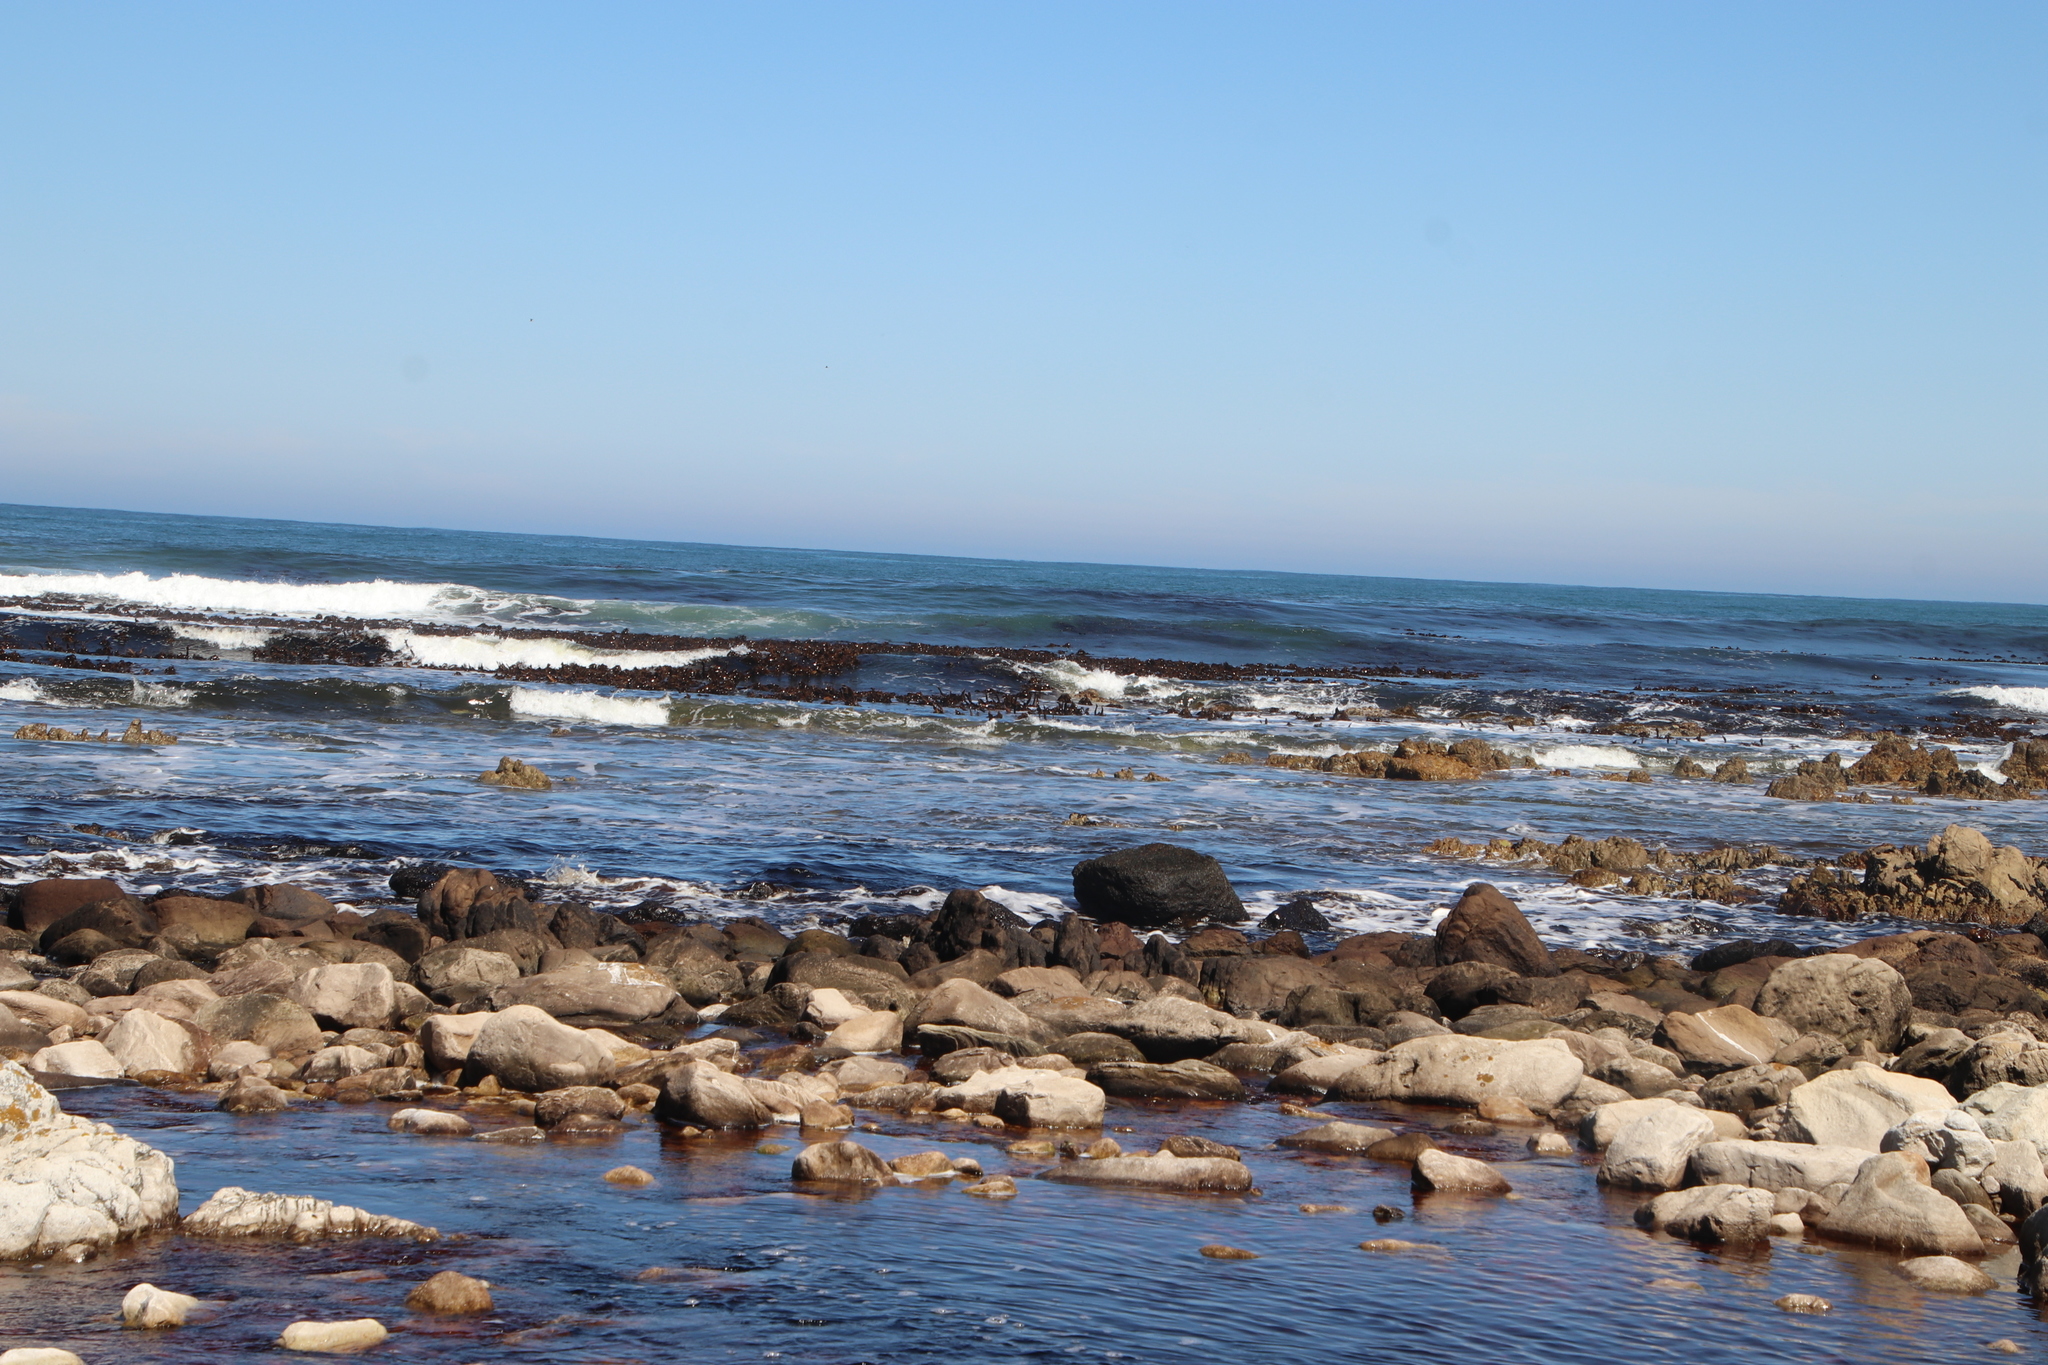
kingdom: Chromista
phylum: Ochrophyta
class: Phaeophyceae
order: Laminariales
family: Lessoniaceae
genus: Ecklonia
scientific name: Ecklonia
